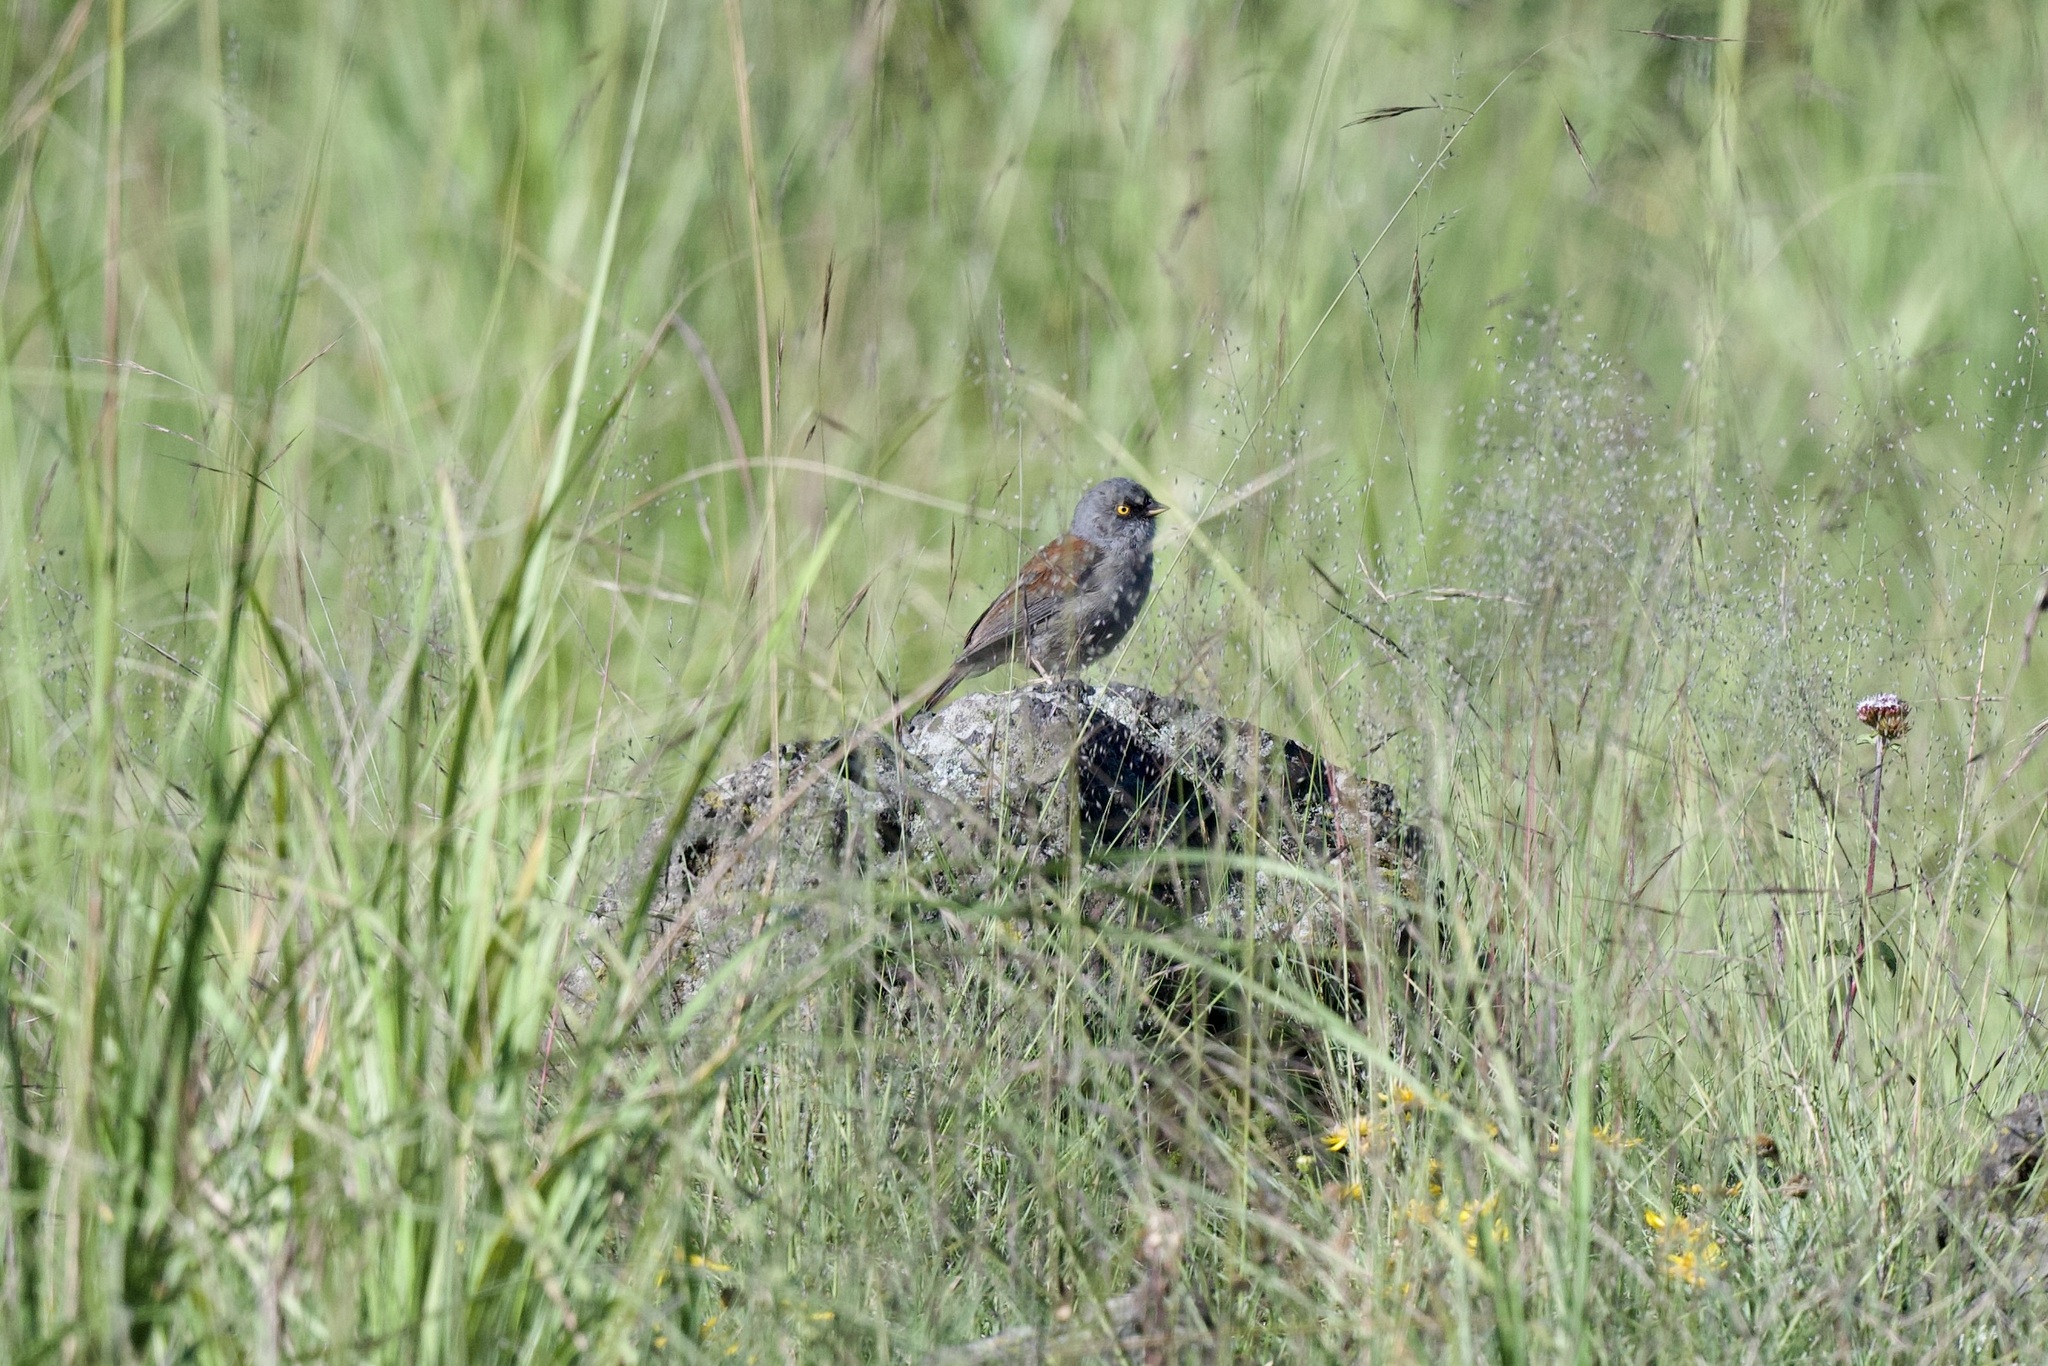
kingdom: Animalia
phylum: Chordata
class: Aves
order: Passeriformes
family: Passerellidae
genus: Junco
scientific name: Junco phaeonotus
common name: Yellow-eyed junco
